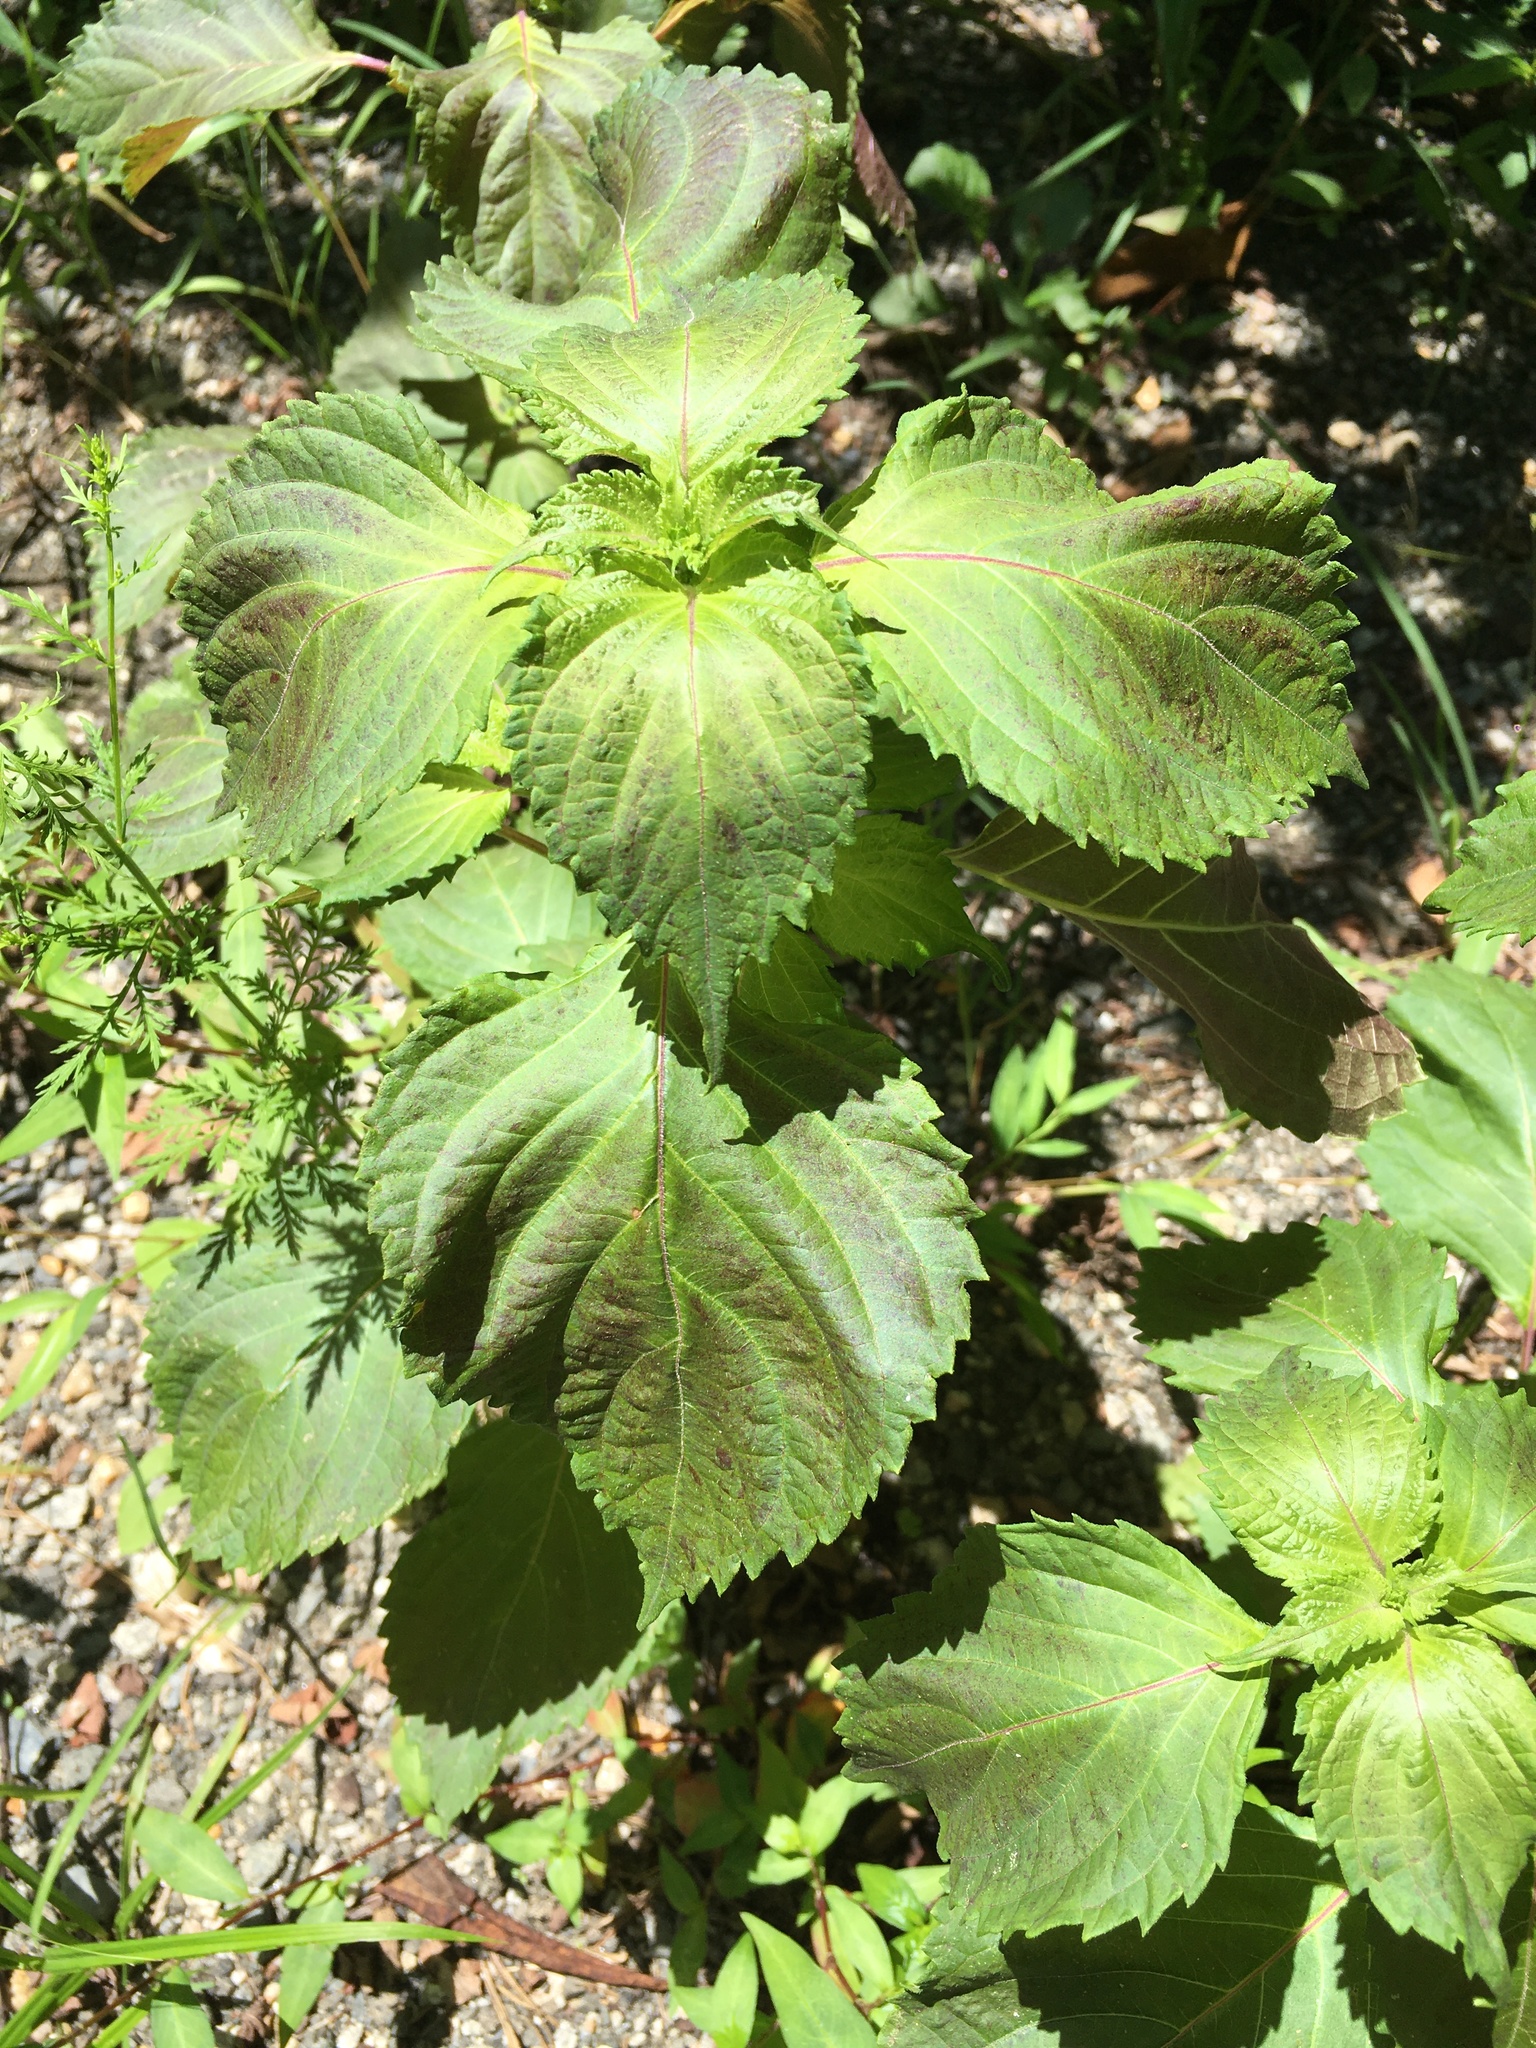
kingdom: Plantae
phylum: Tracheophyta
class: Magnoliopsida
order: Lamiales
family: Lamiaceae
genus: Perilla
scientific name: Perilla frutescens
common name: Perilla
